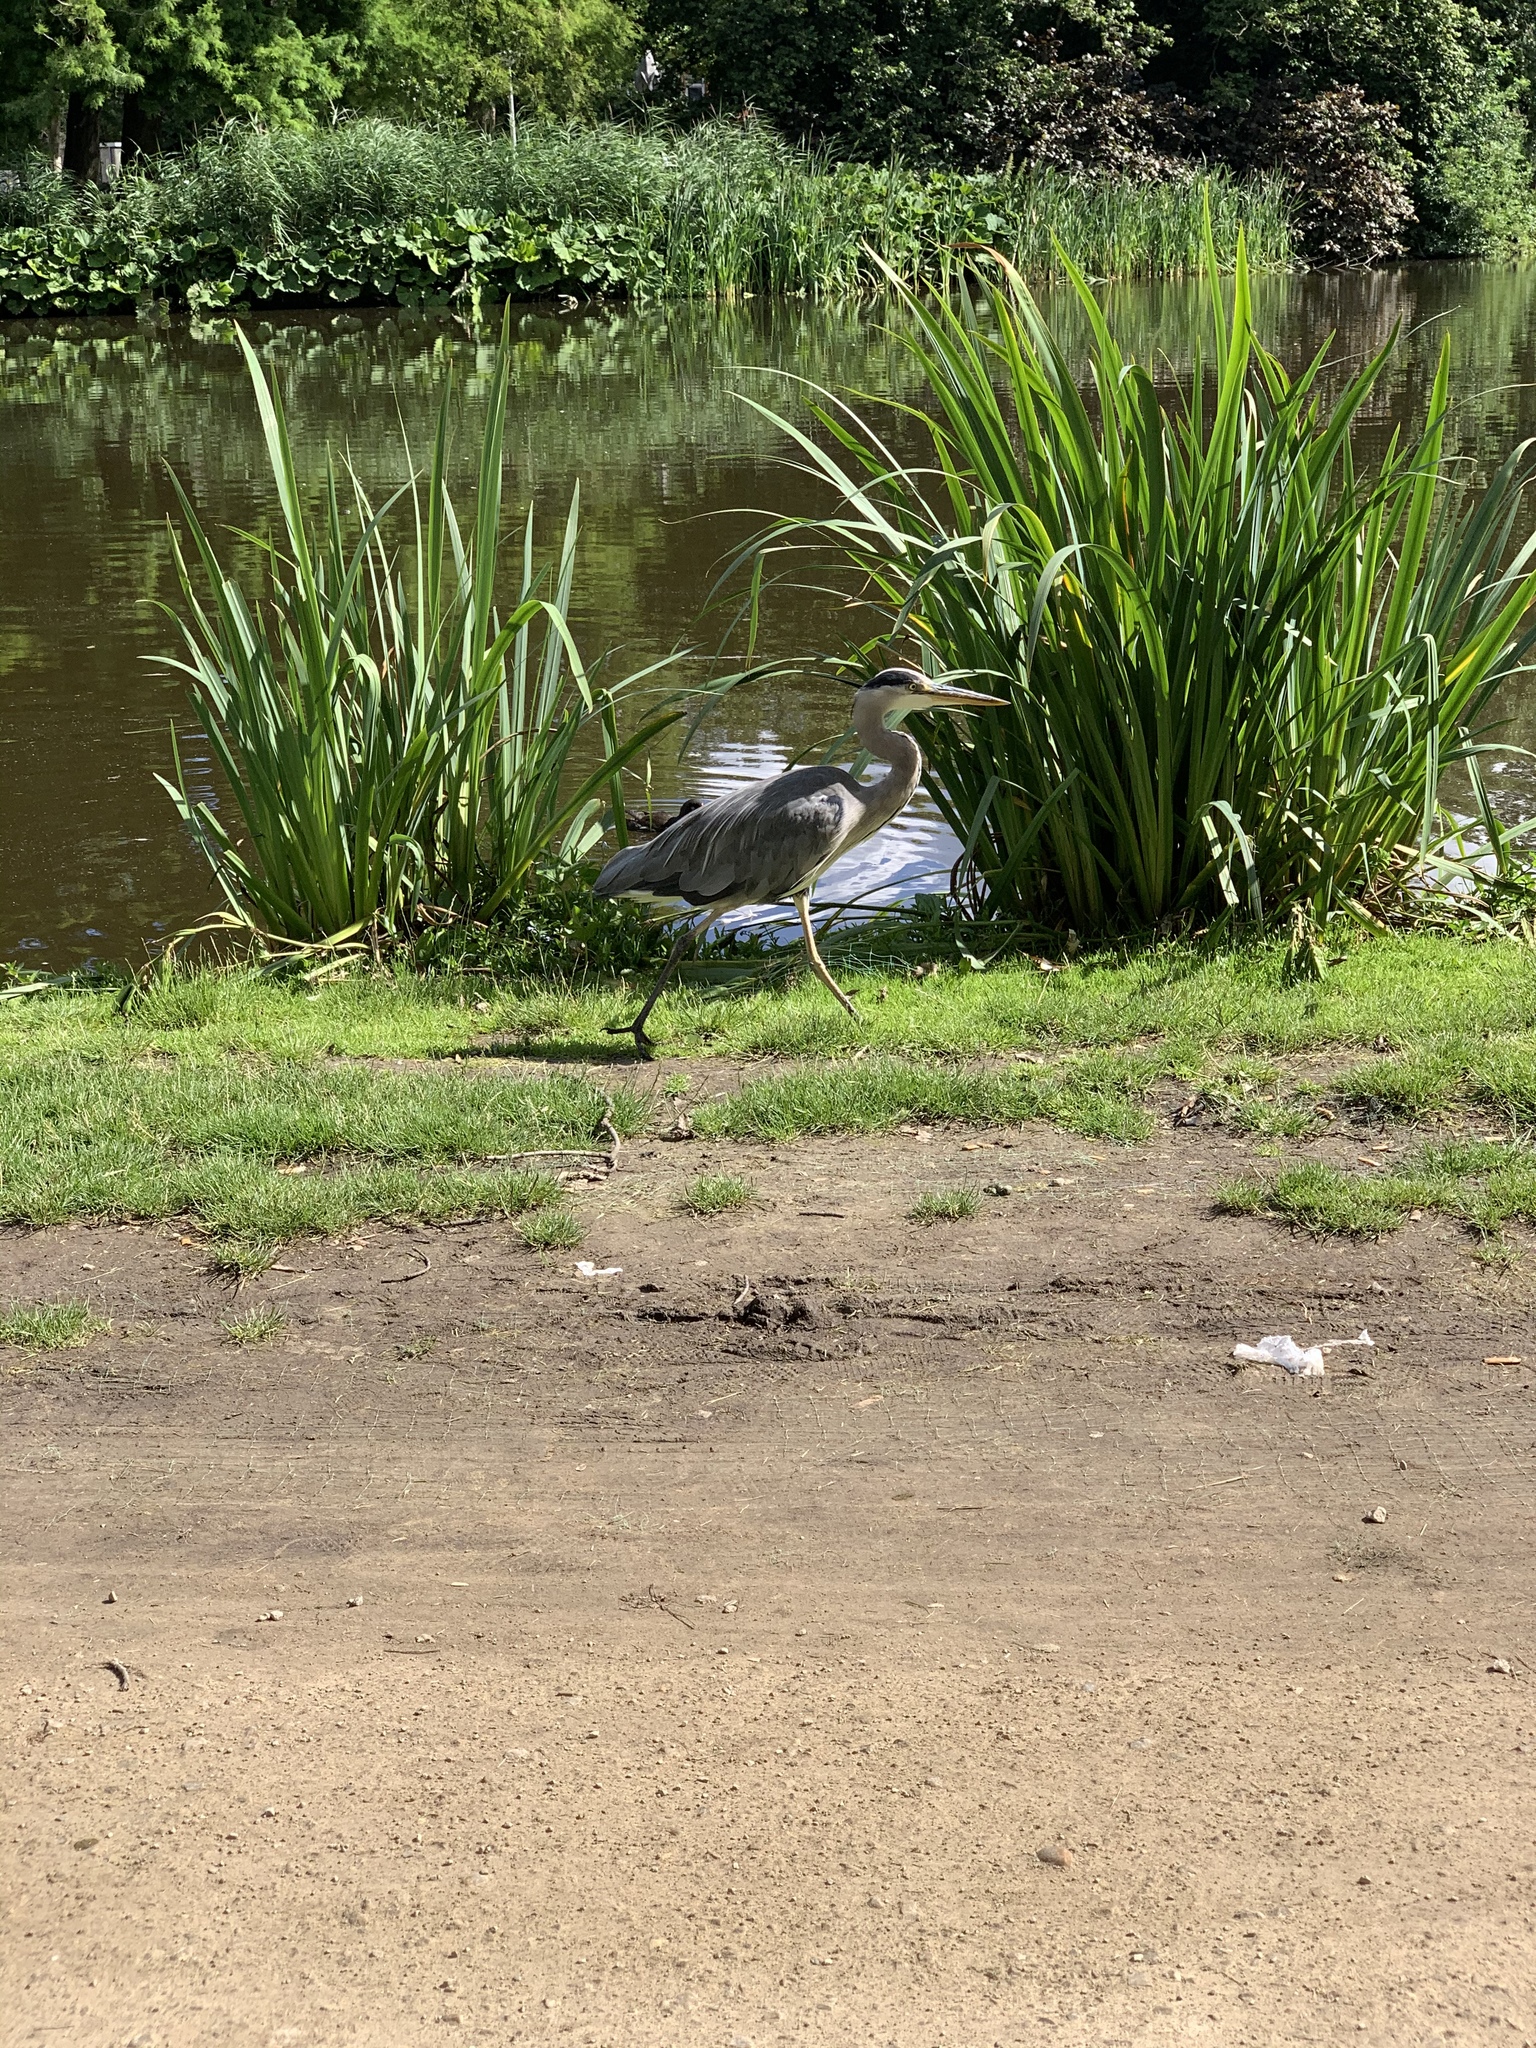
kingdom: Animalia
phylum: Chordata
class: Aves
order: Pelecaniformes
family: Ardeidae
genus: Ardea
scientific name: Ardea cinerea
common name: Grey heron
